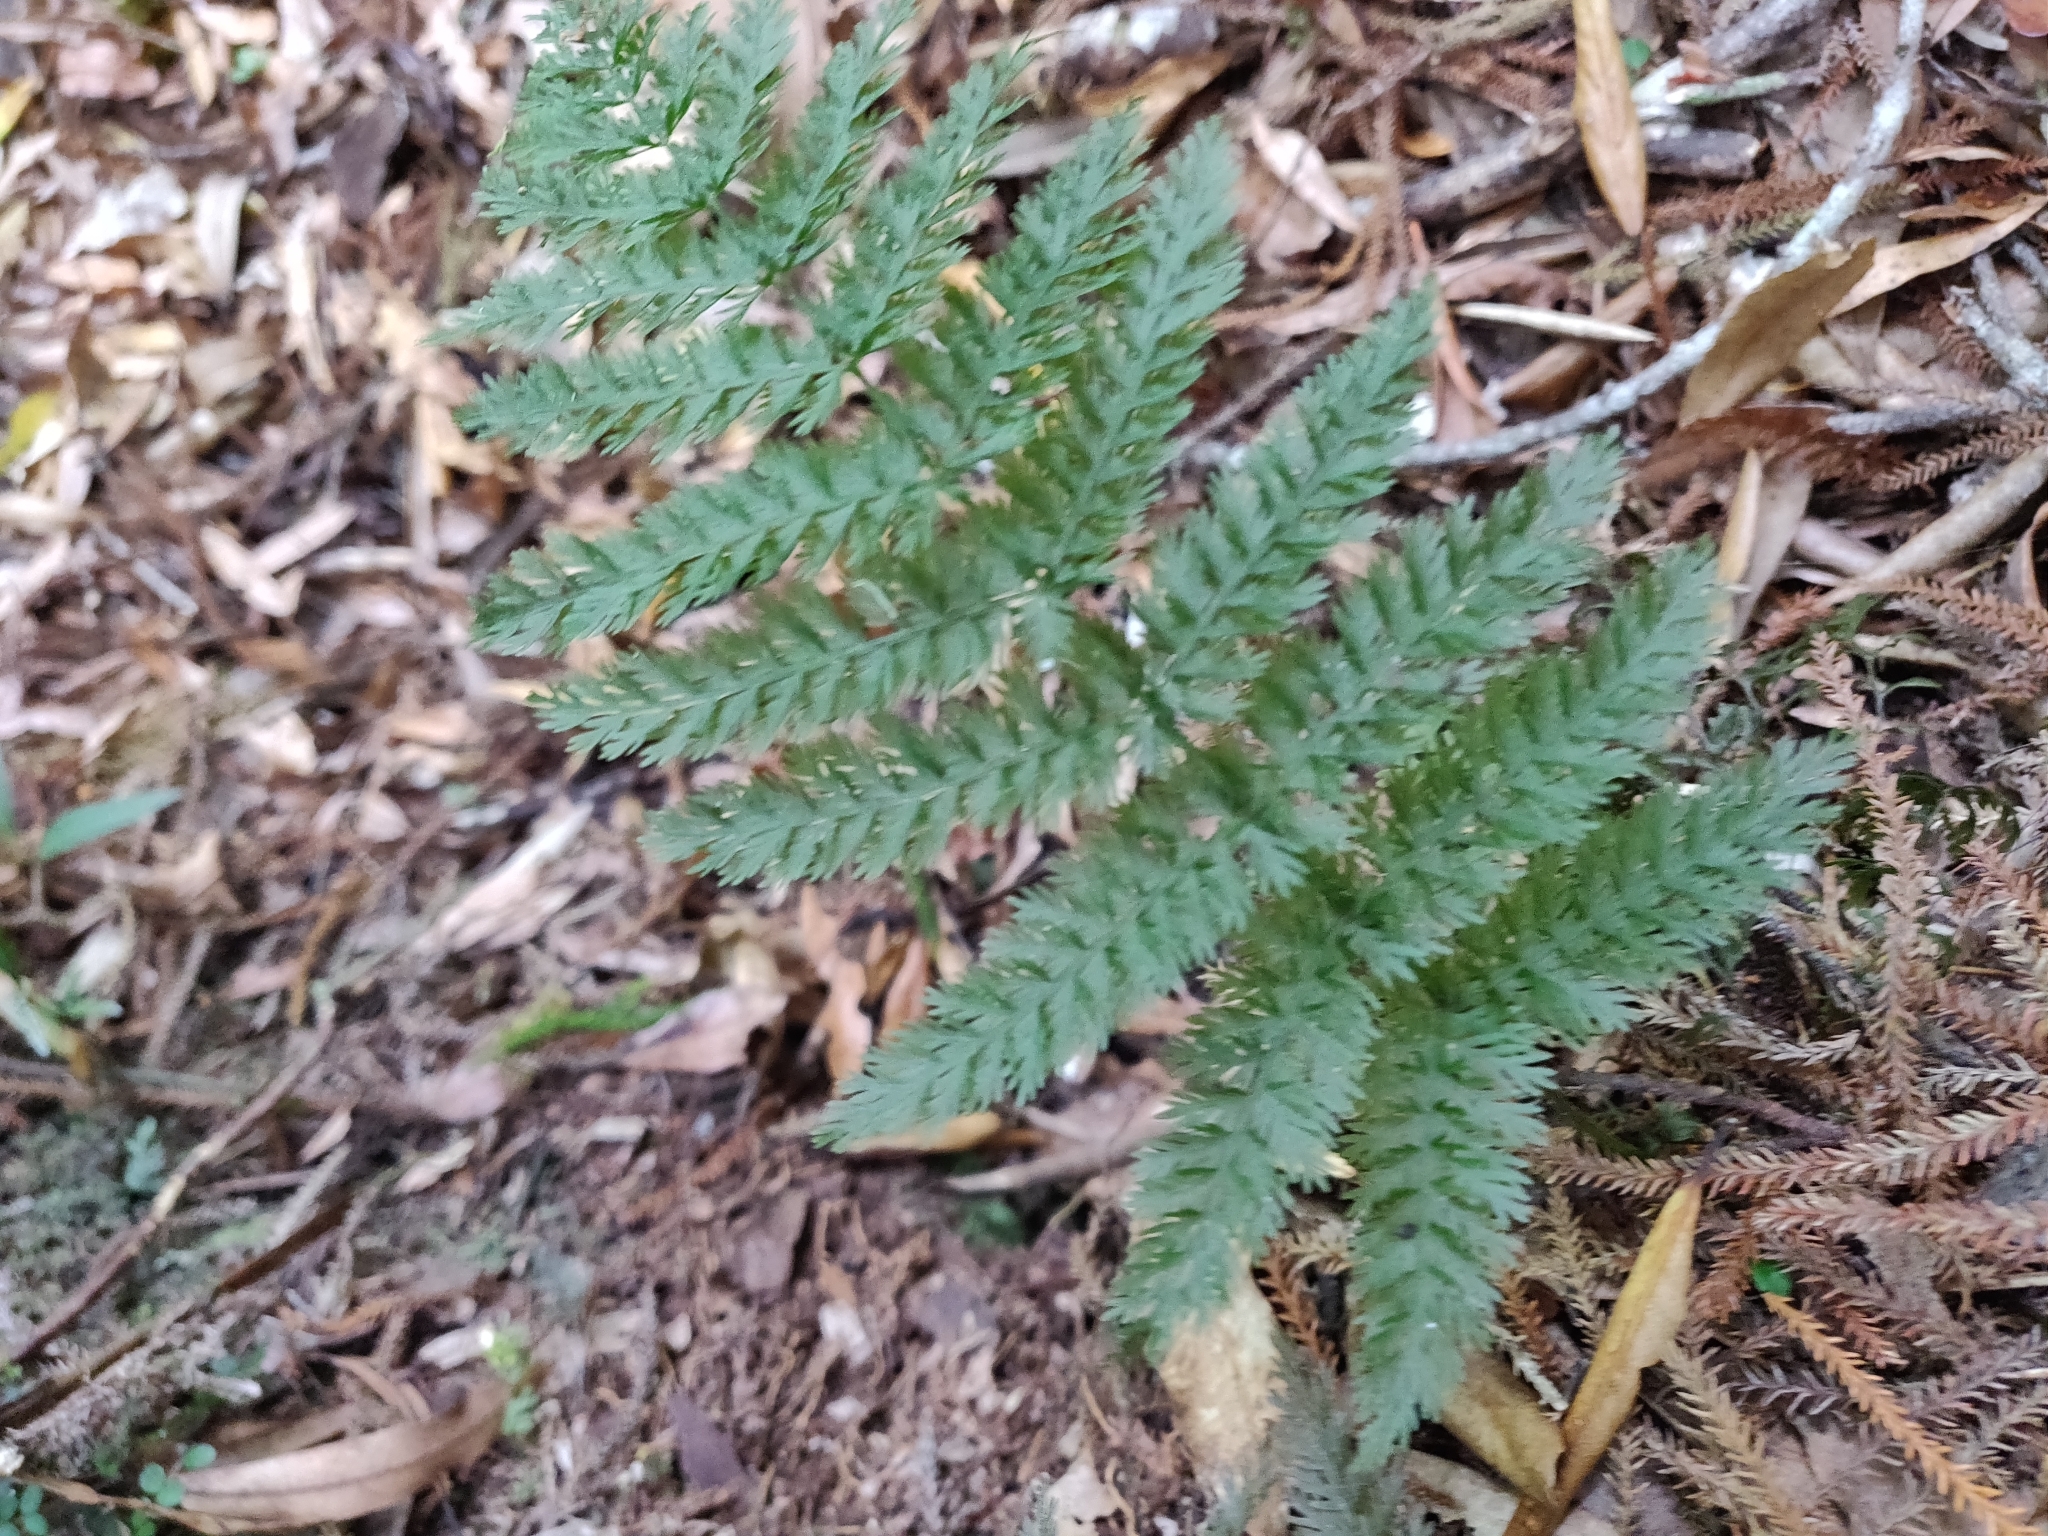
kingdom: Plantae
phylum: Tracheophyta
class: Polypodiopsida
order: Osmundales
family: Osmundaceae
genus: Leptopteris
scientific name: Leptopteris hymenophylloides
